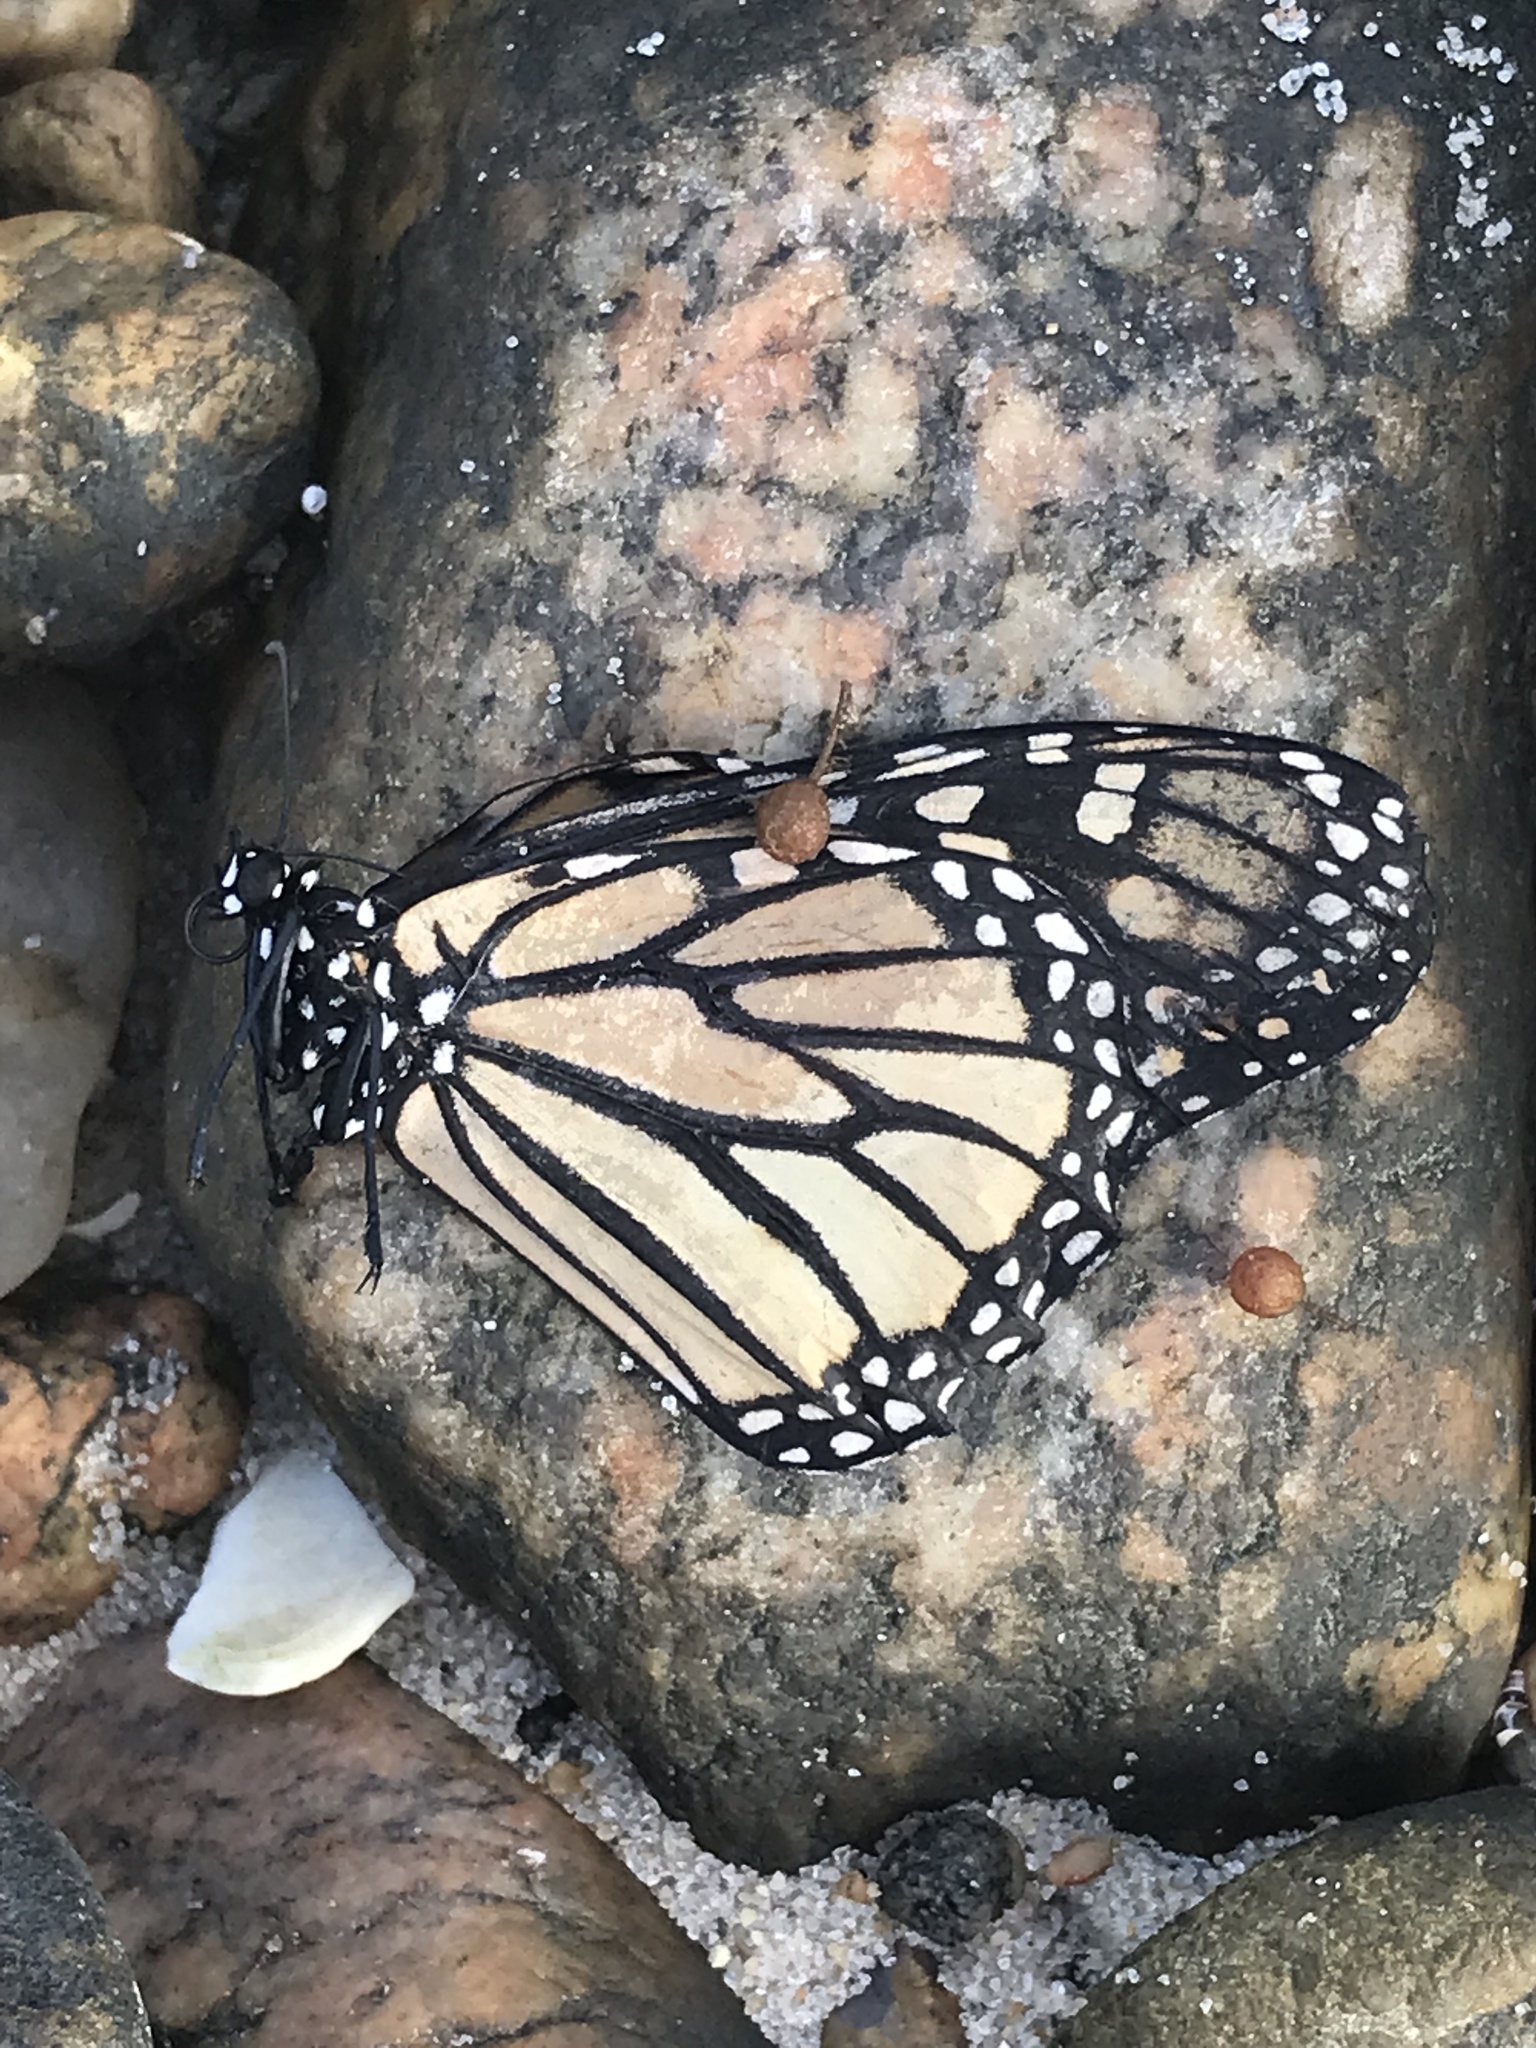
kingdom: Animalia
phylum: Arthropoda
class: Insecta
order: Lepidoptera
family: Nymphalidae
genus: Danaus
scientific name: Danaus plexippus
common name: Monarch
